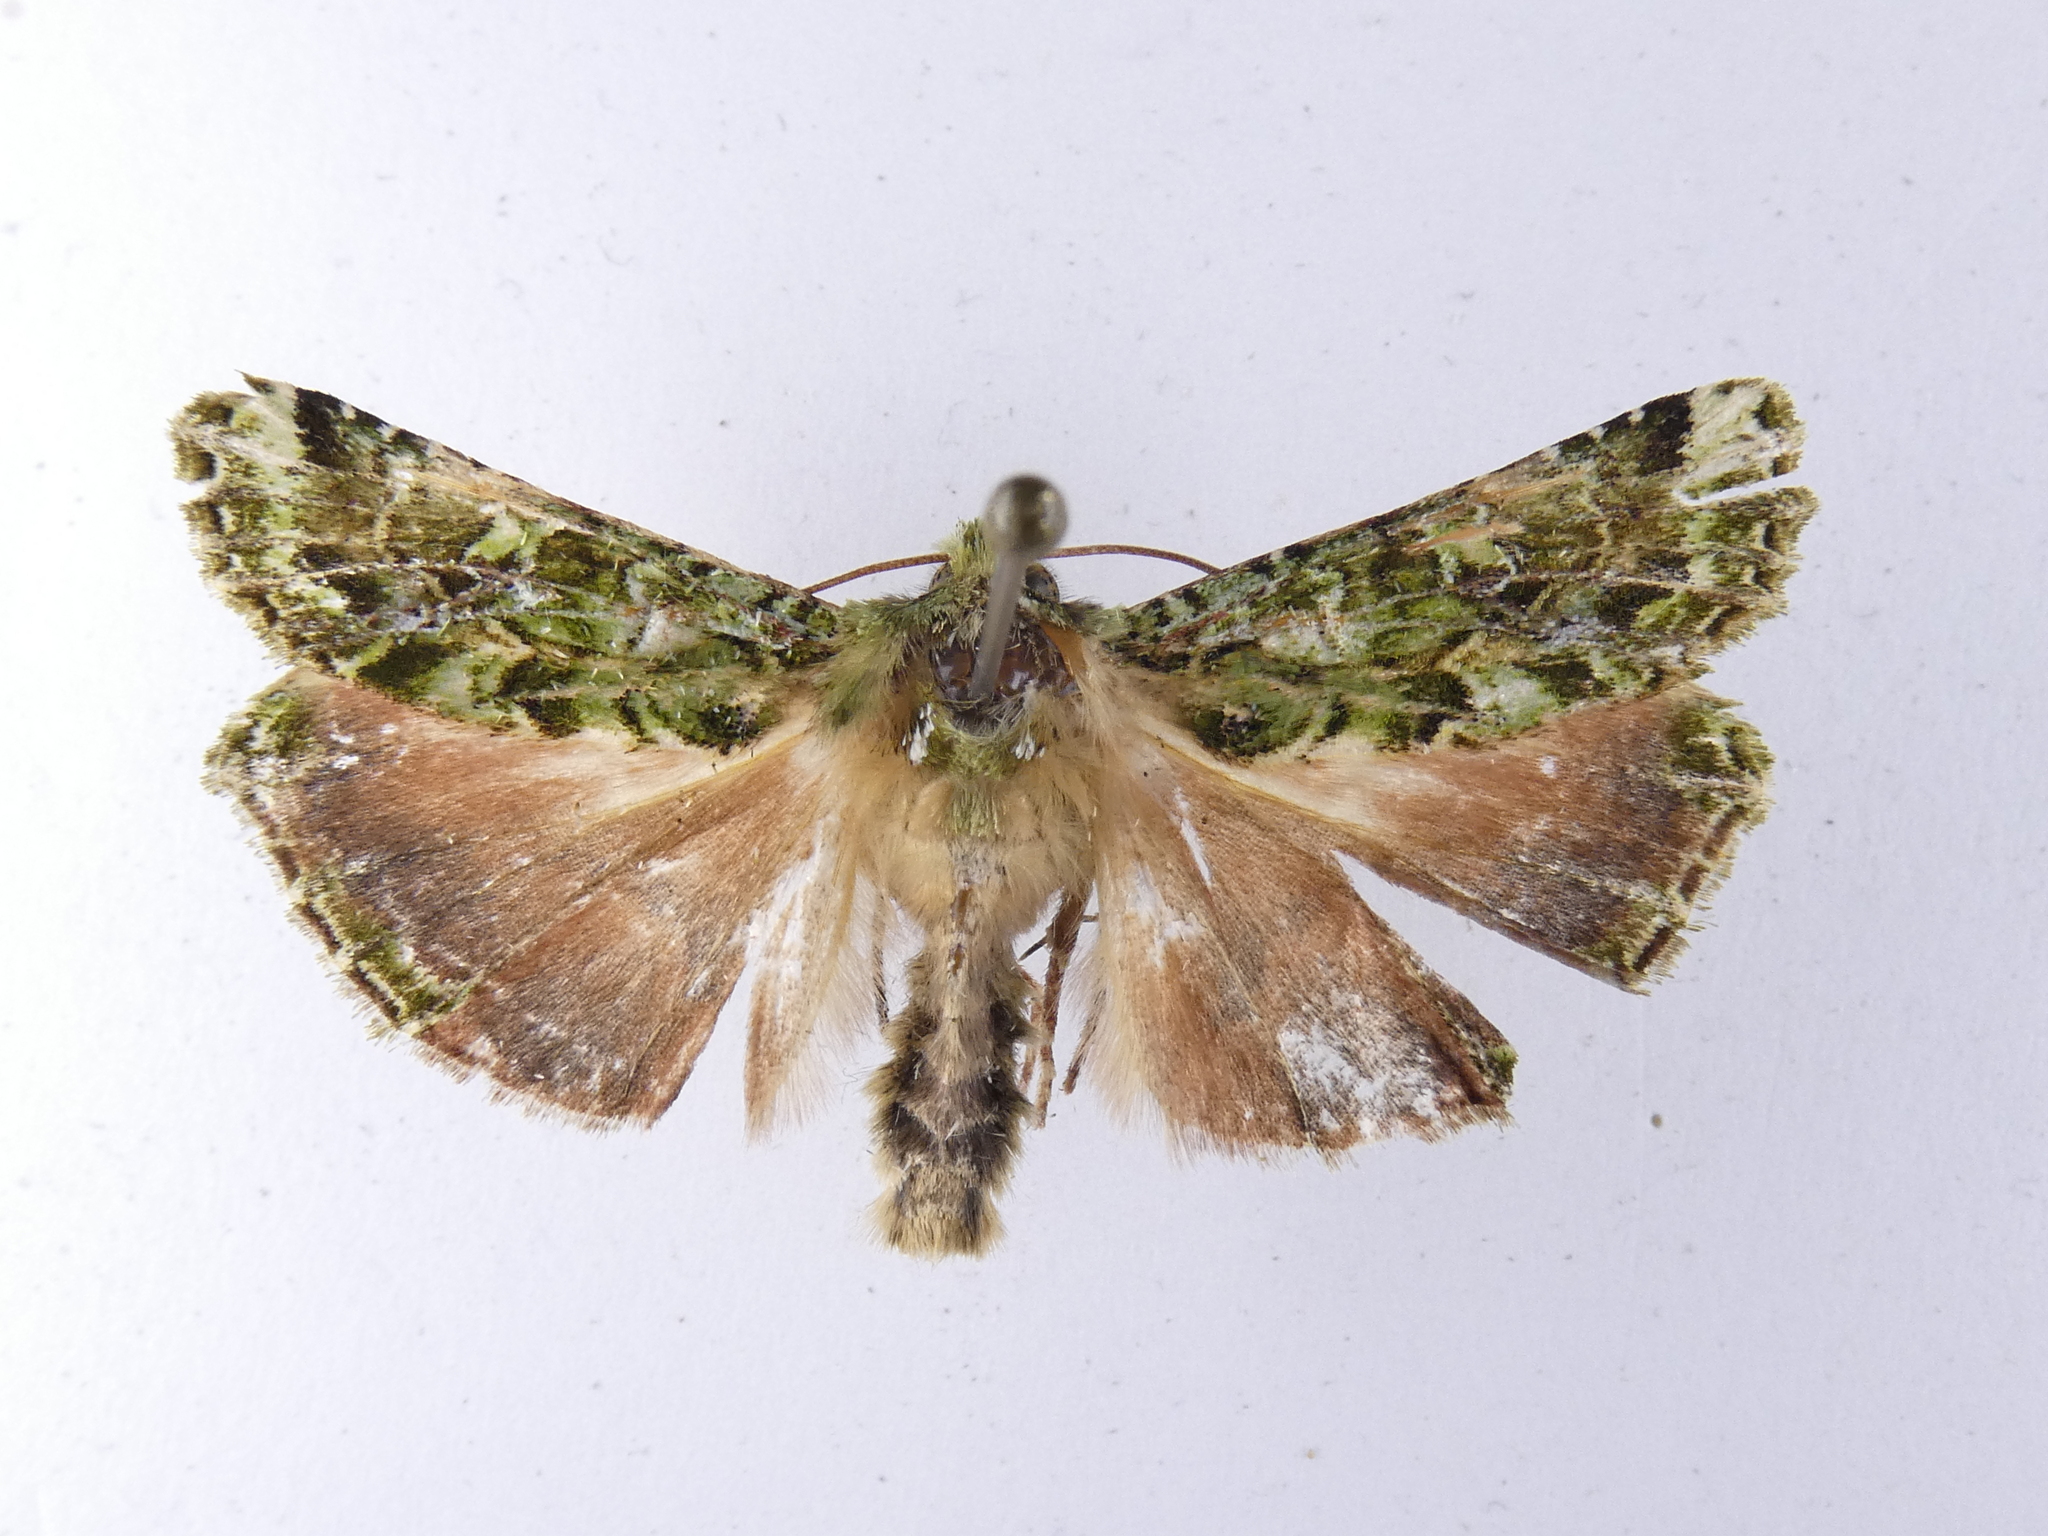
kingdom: Animalia
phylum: Arthropoda
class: Insecta
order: Lepidoptera
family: Noctuidae
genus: Feredayia
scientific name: Feredayia grammosa
